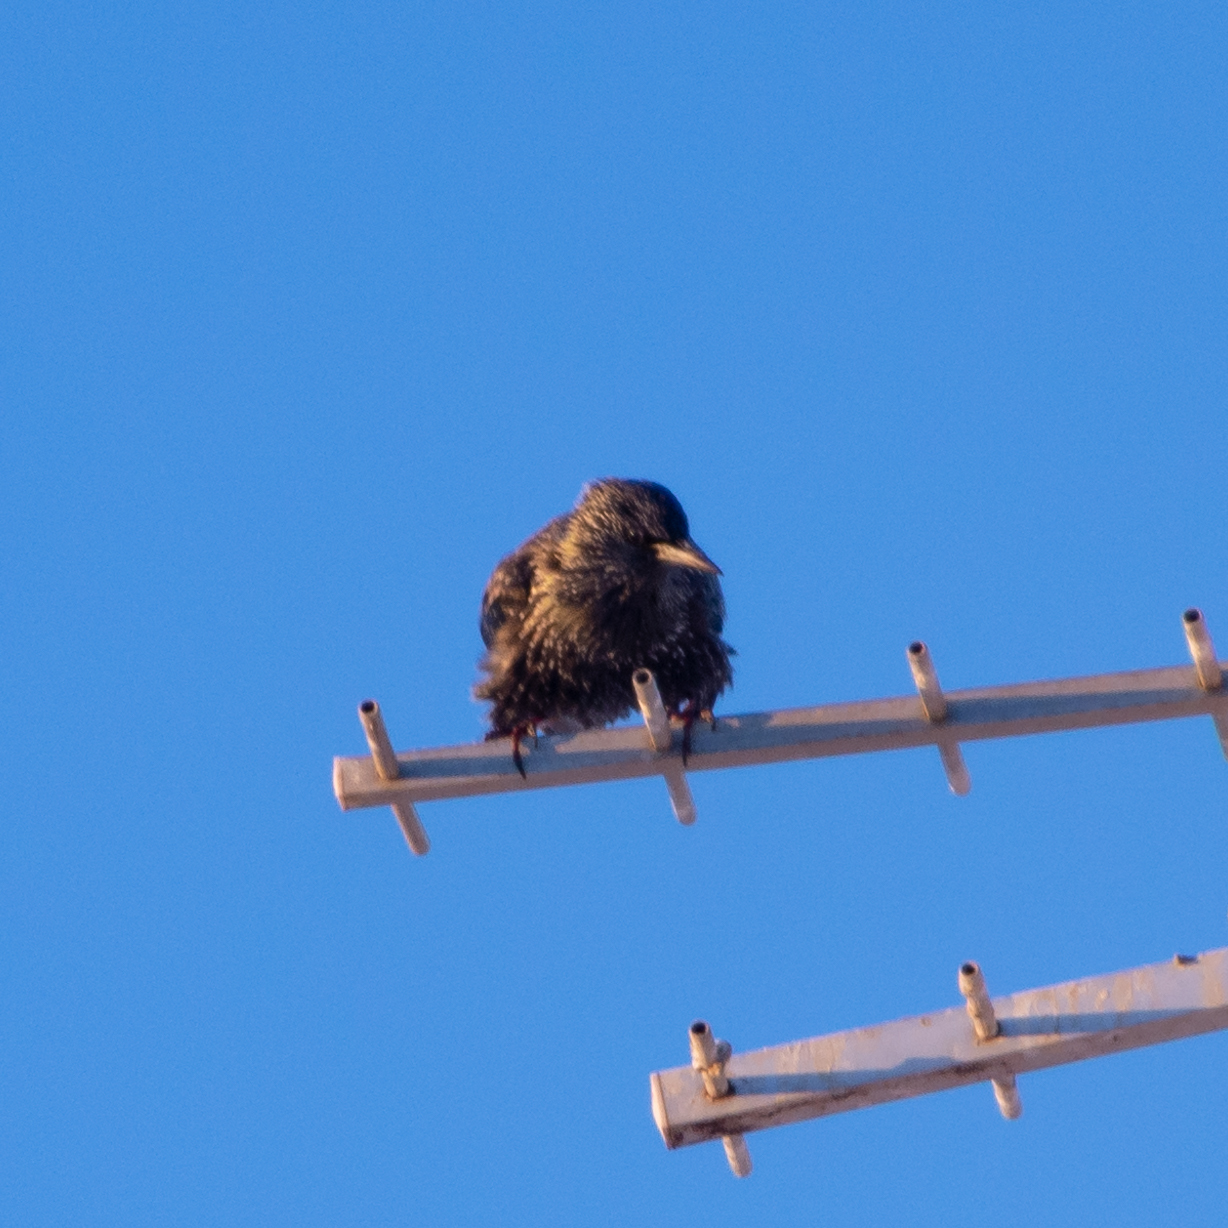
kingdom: Animalia
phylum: Chordata
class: Aves
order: Passeriformes
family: Sturnidae
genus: Sturnus
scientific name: Sturnus unicolor
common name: Spotless starling
